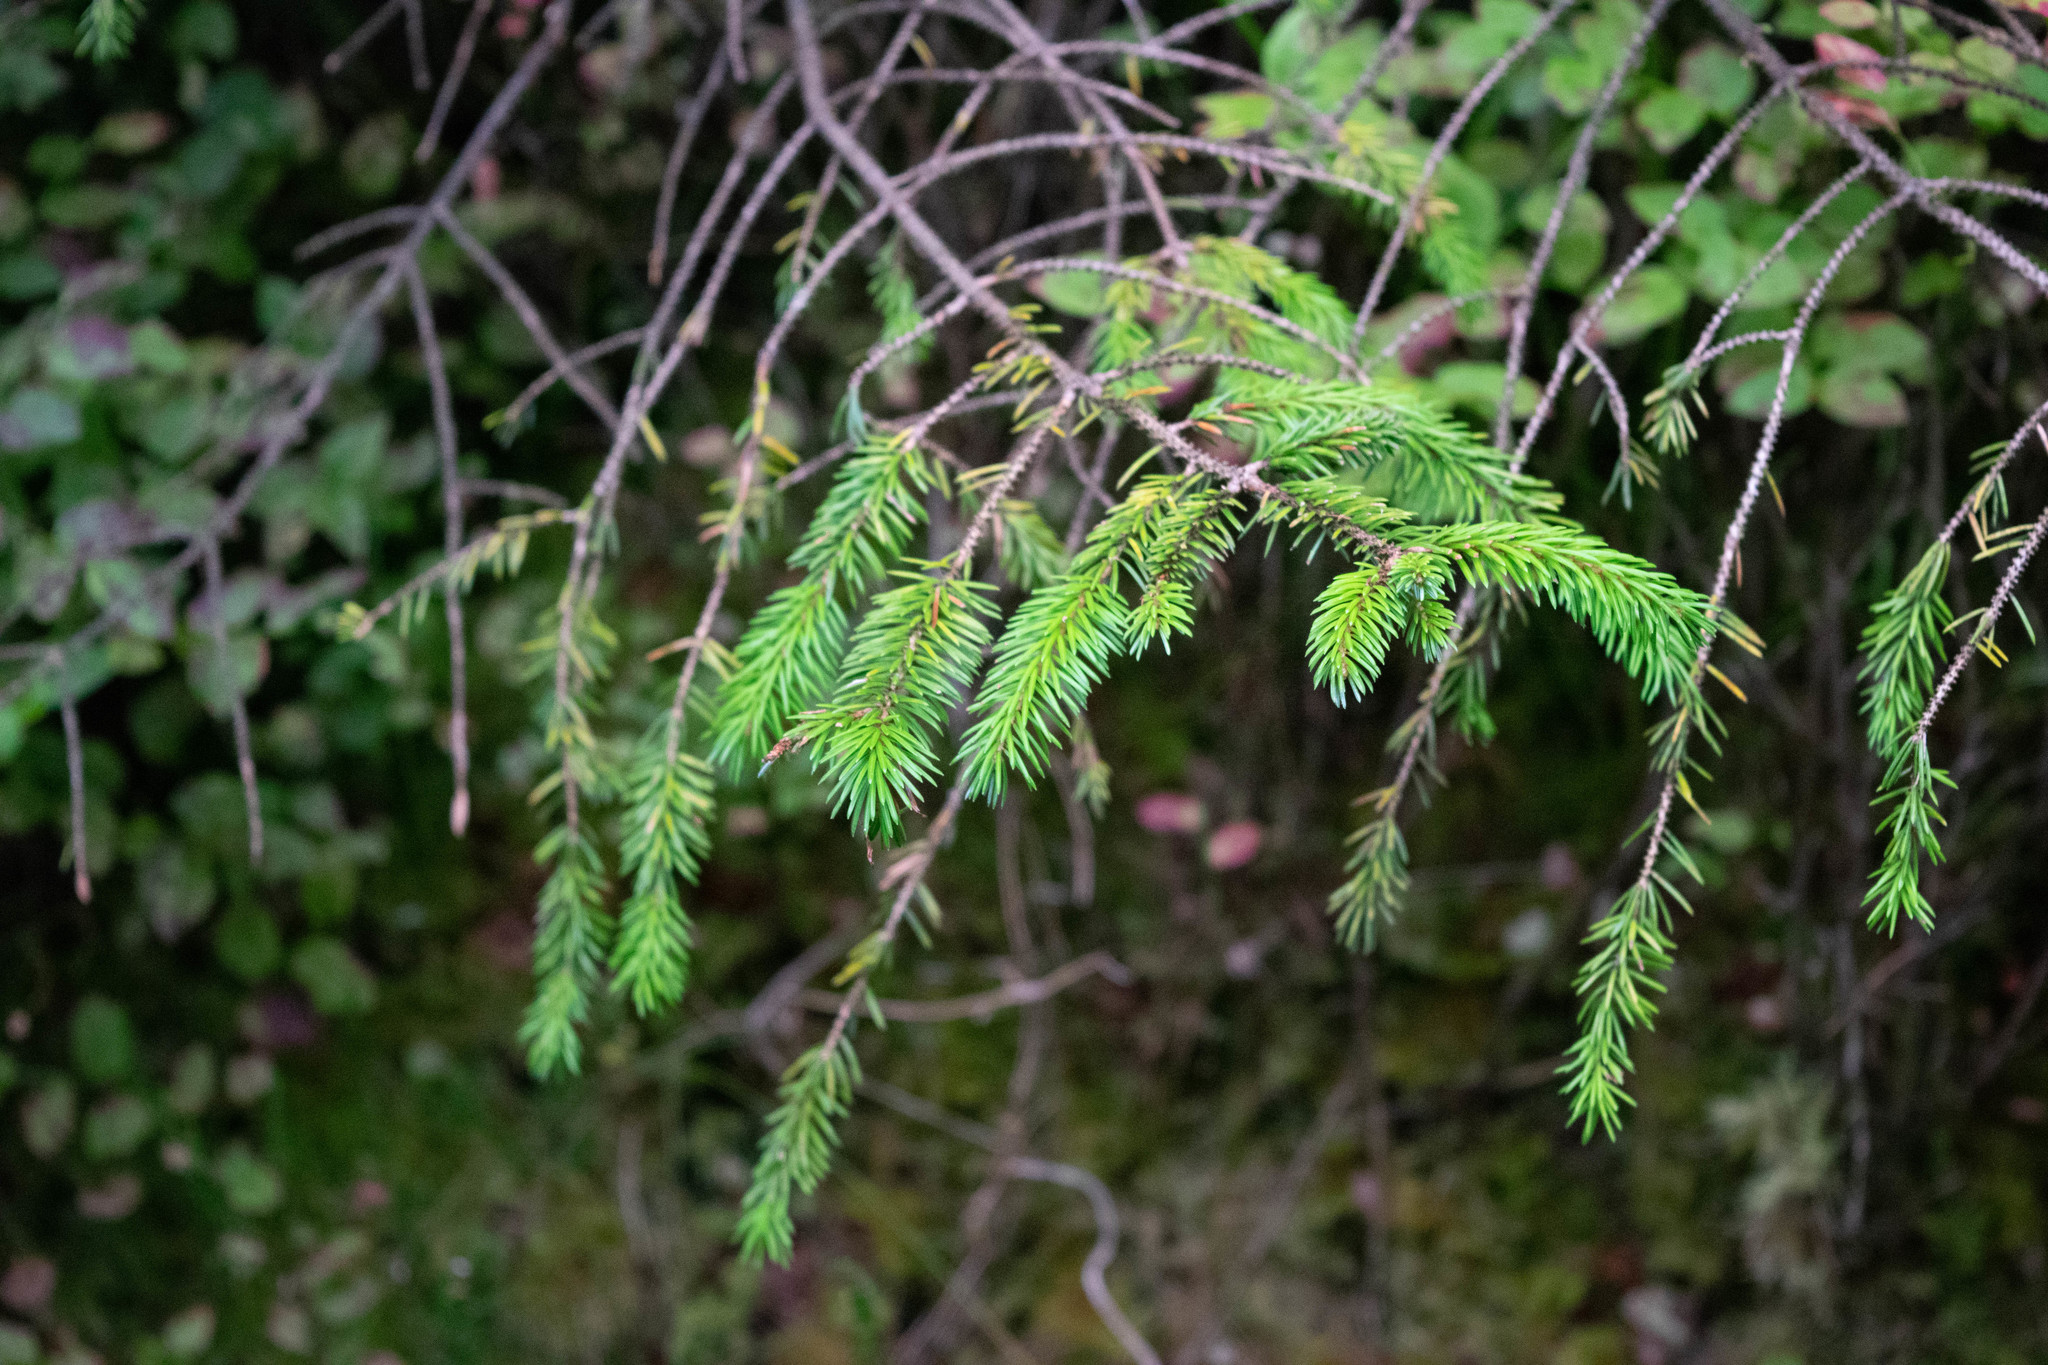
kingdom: Plantae
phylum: Tracheophyta
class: Pinopsida
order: Pinales
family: Pinaceae
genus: Picea
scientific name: Picea abies
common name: Norway spruce
